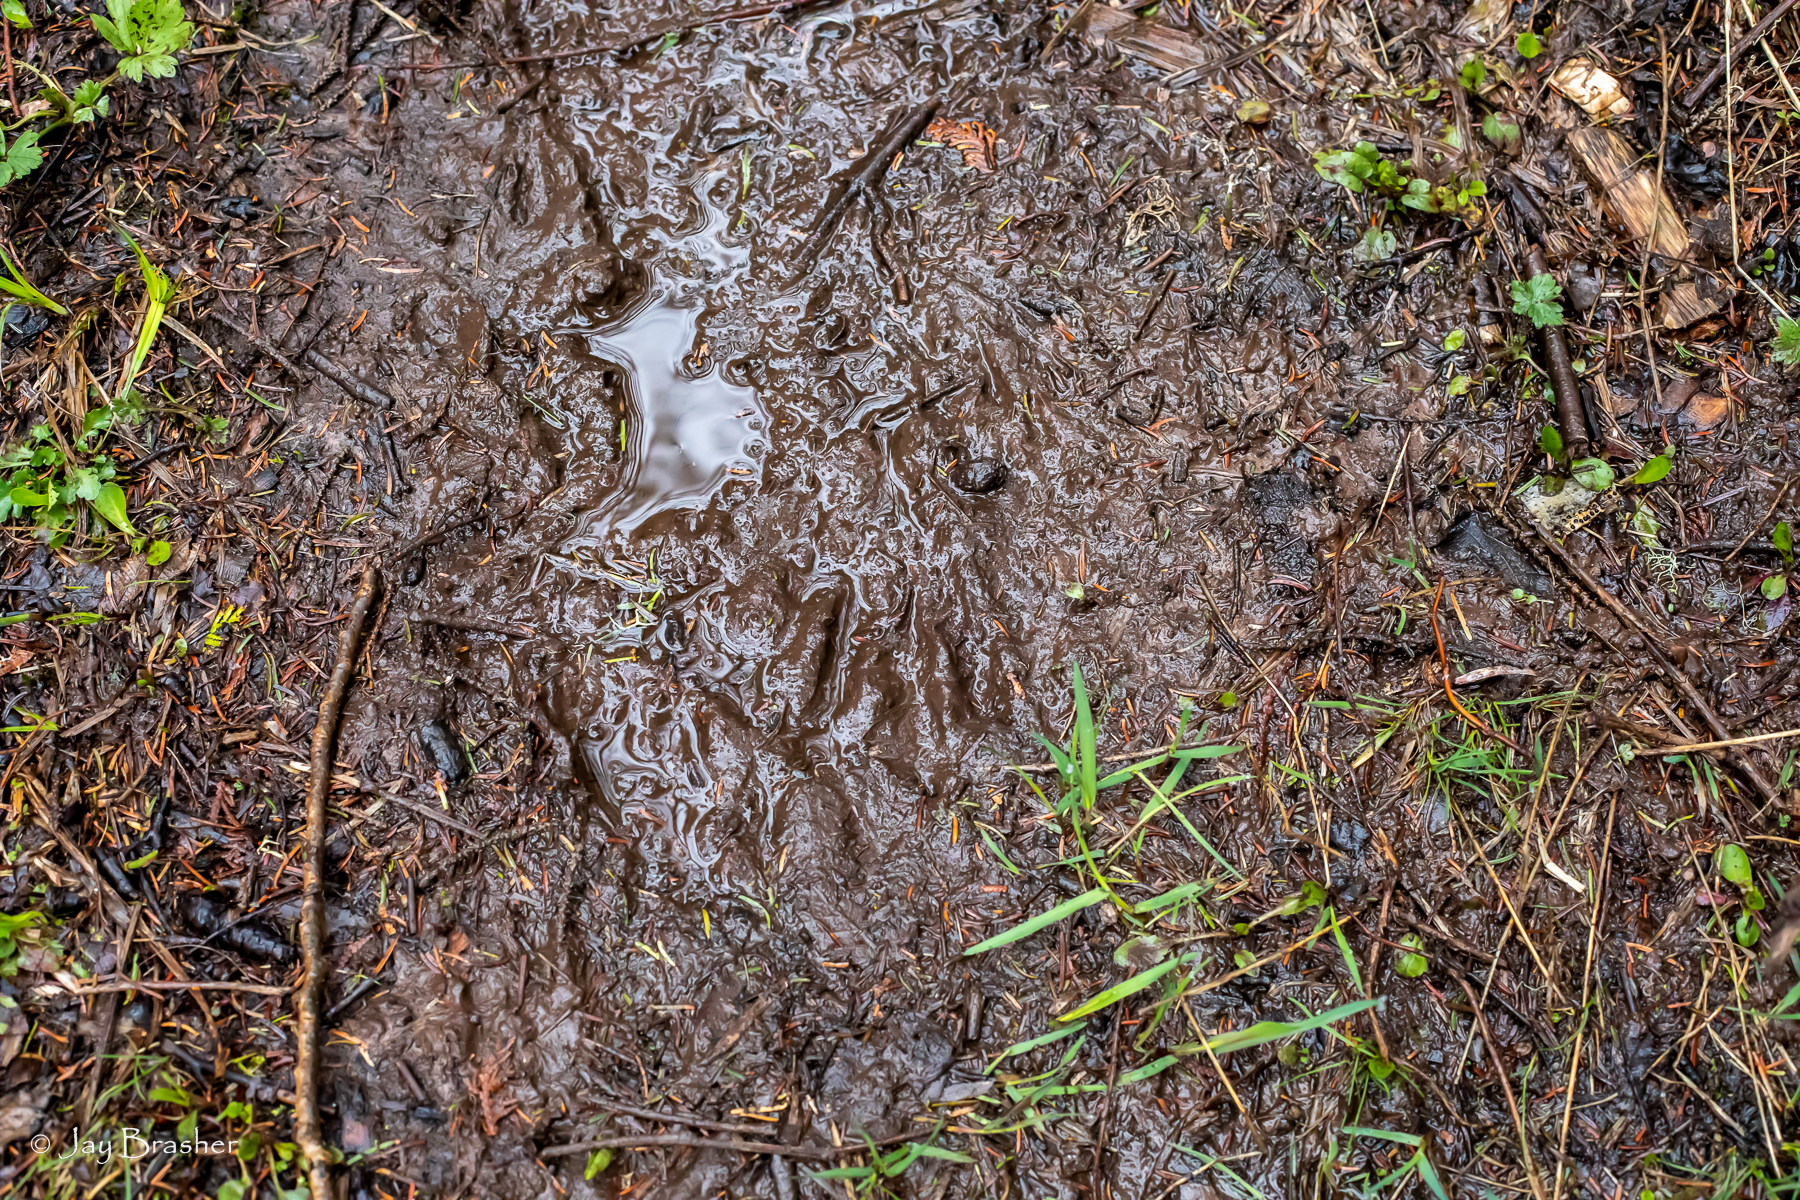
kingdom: Animalia
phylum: Chordata
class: Mammalia
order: Rodentia
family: Castoridae
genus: Castor
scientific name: Castor canadensis
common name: American beaver
